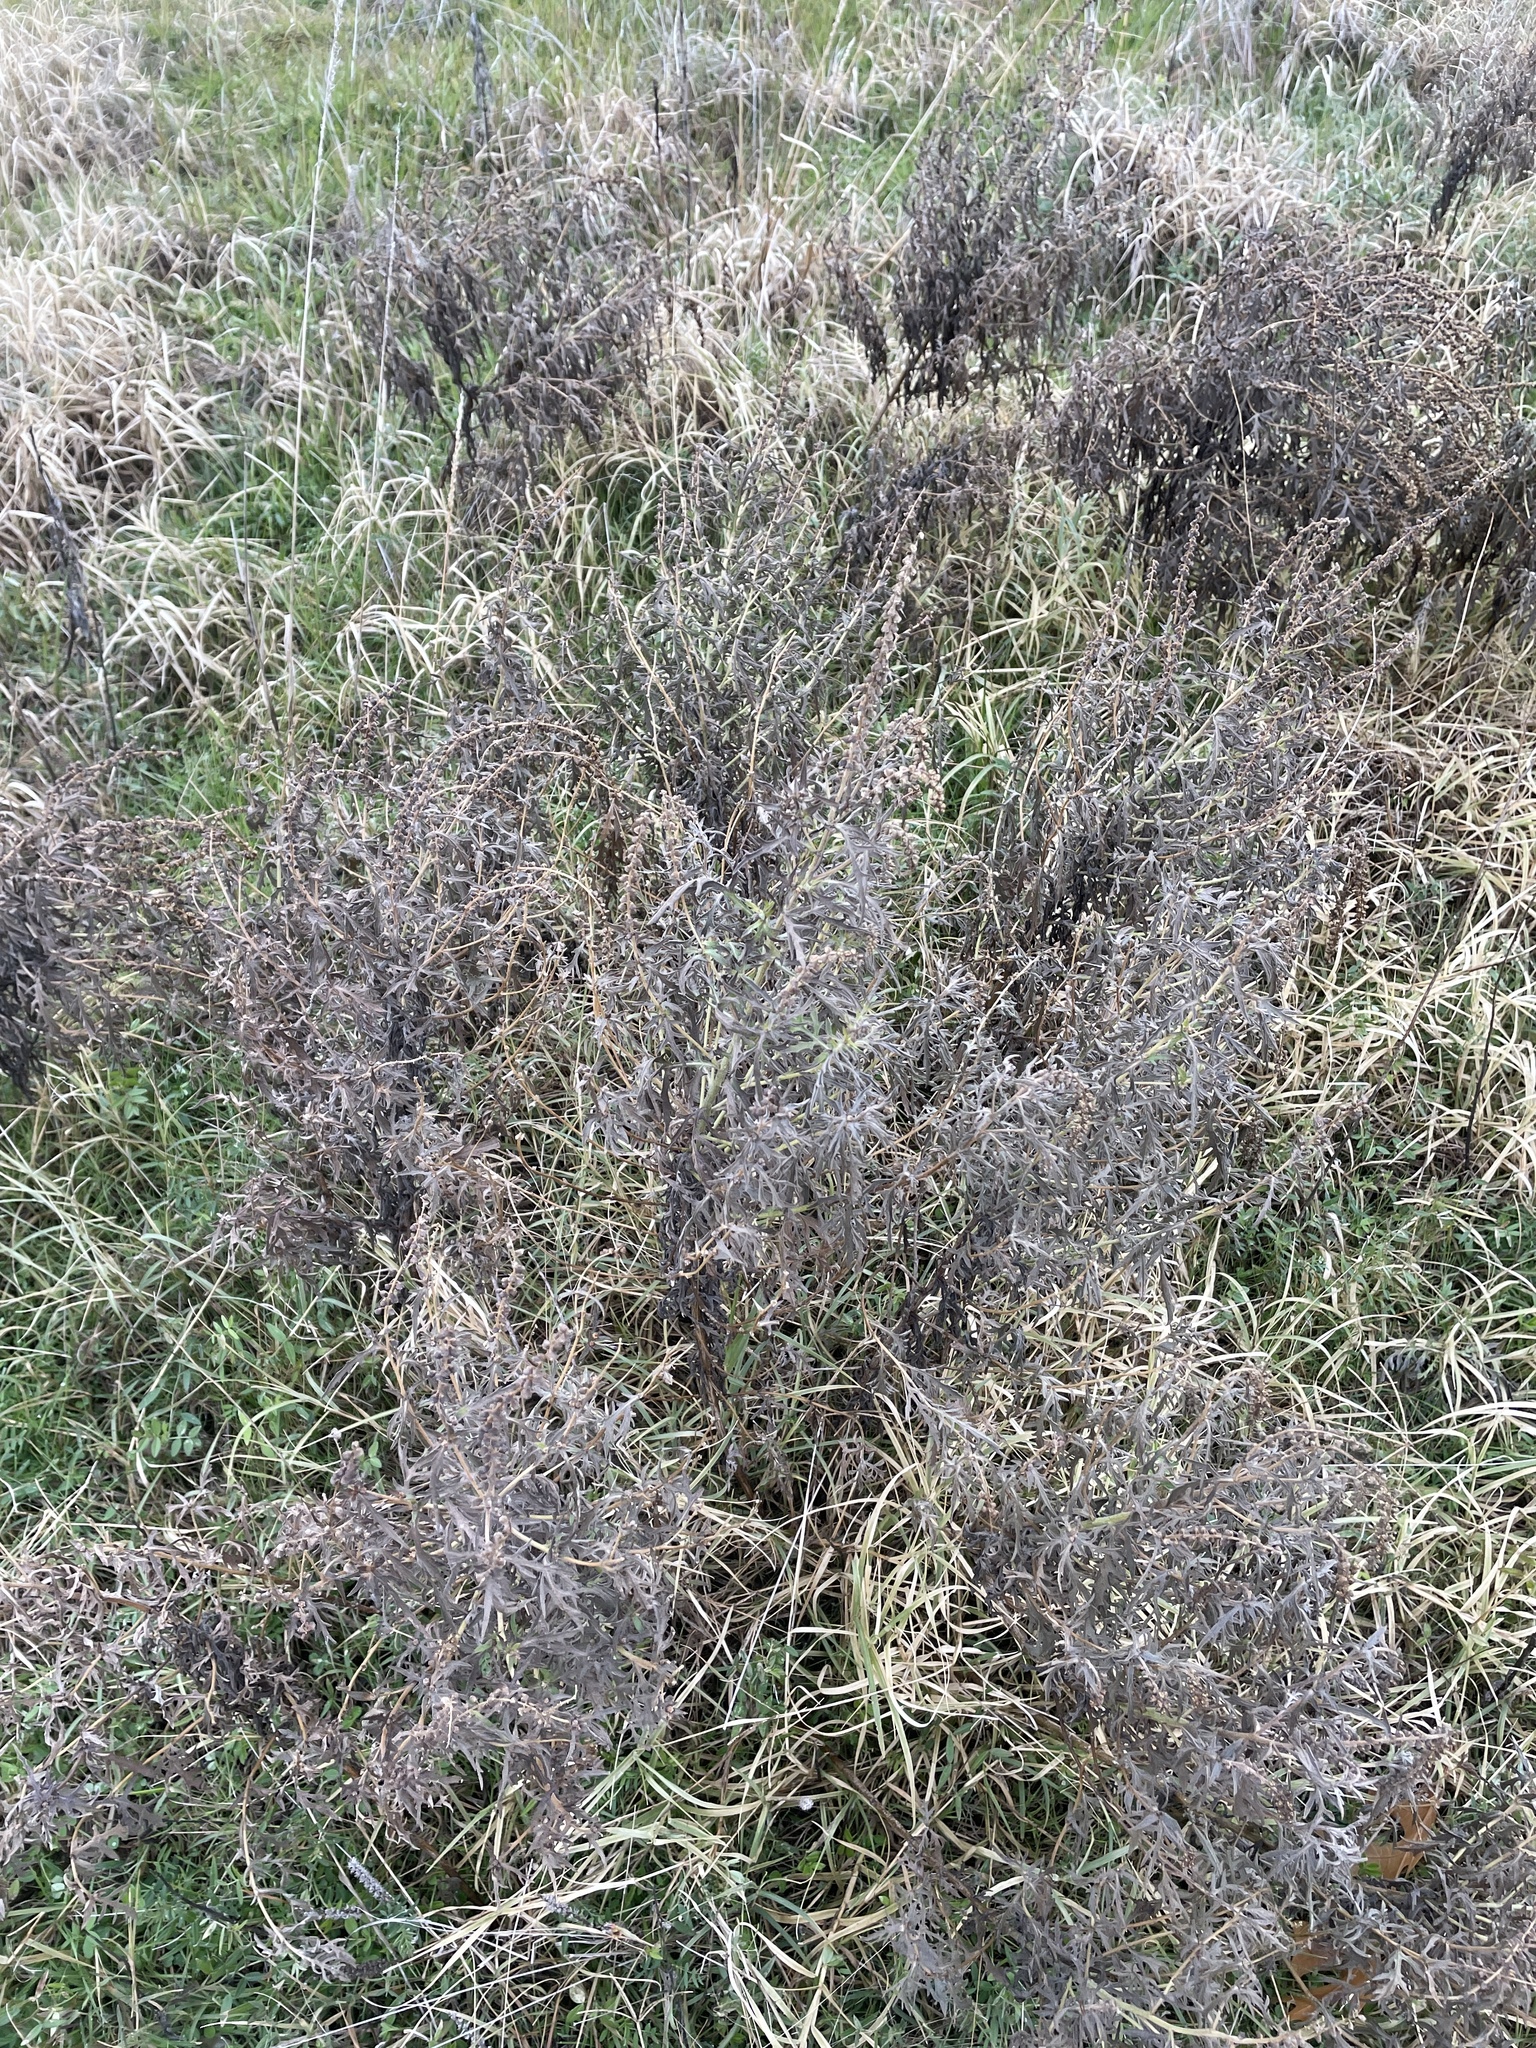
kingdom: Plantae
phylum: Tracheophyta
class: Magnoliopsida
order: Asterales
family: Asteraceae
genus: Ambrosia
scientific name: Ambrosia psilostachya
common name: Perennial ragweed
